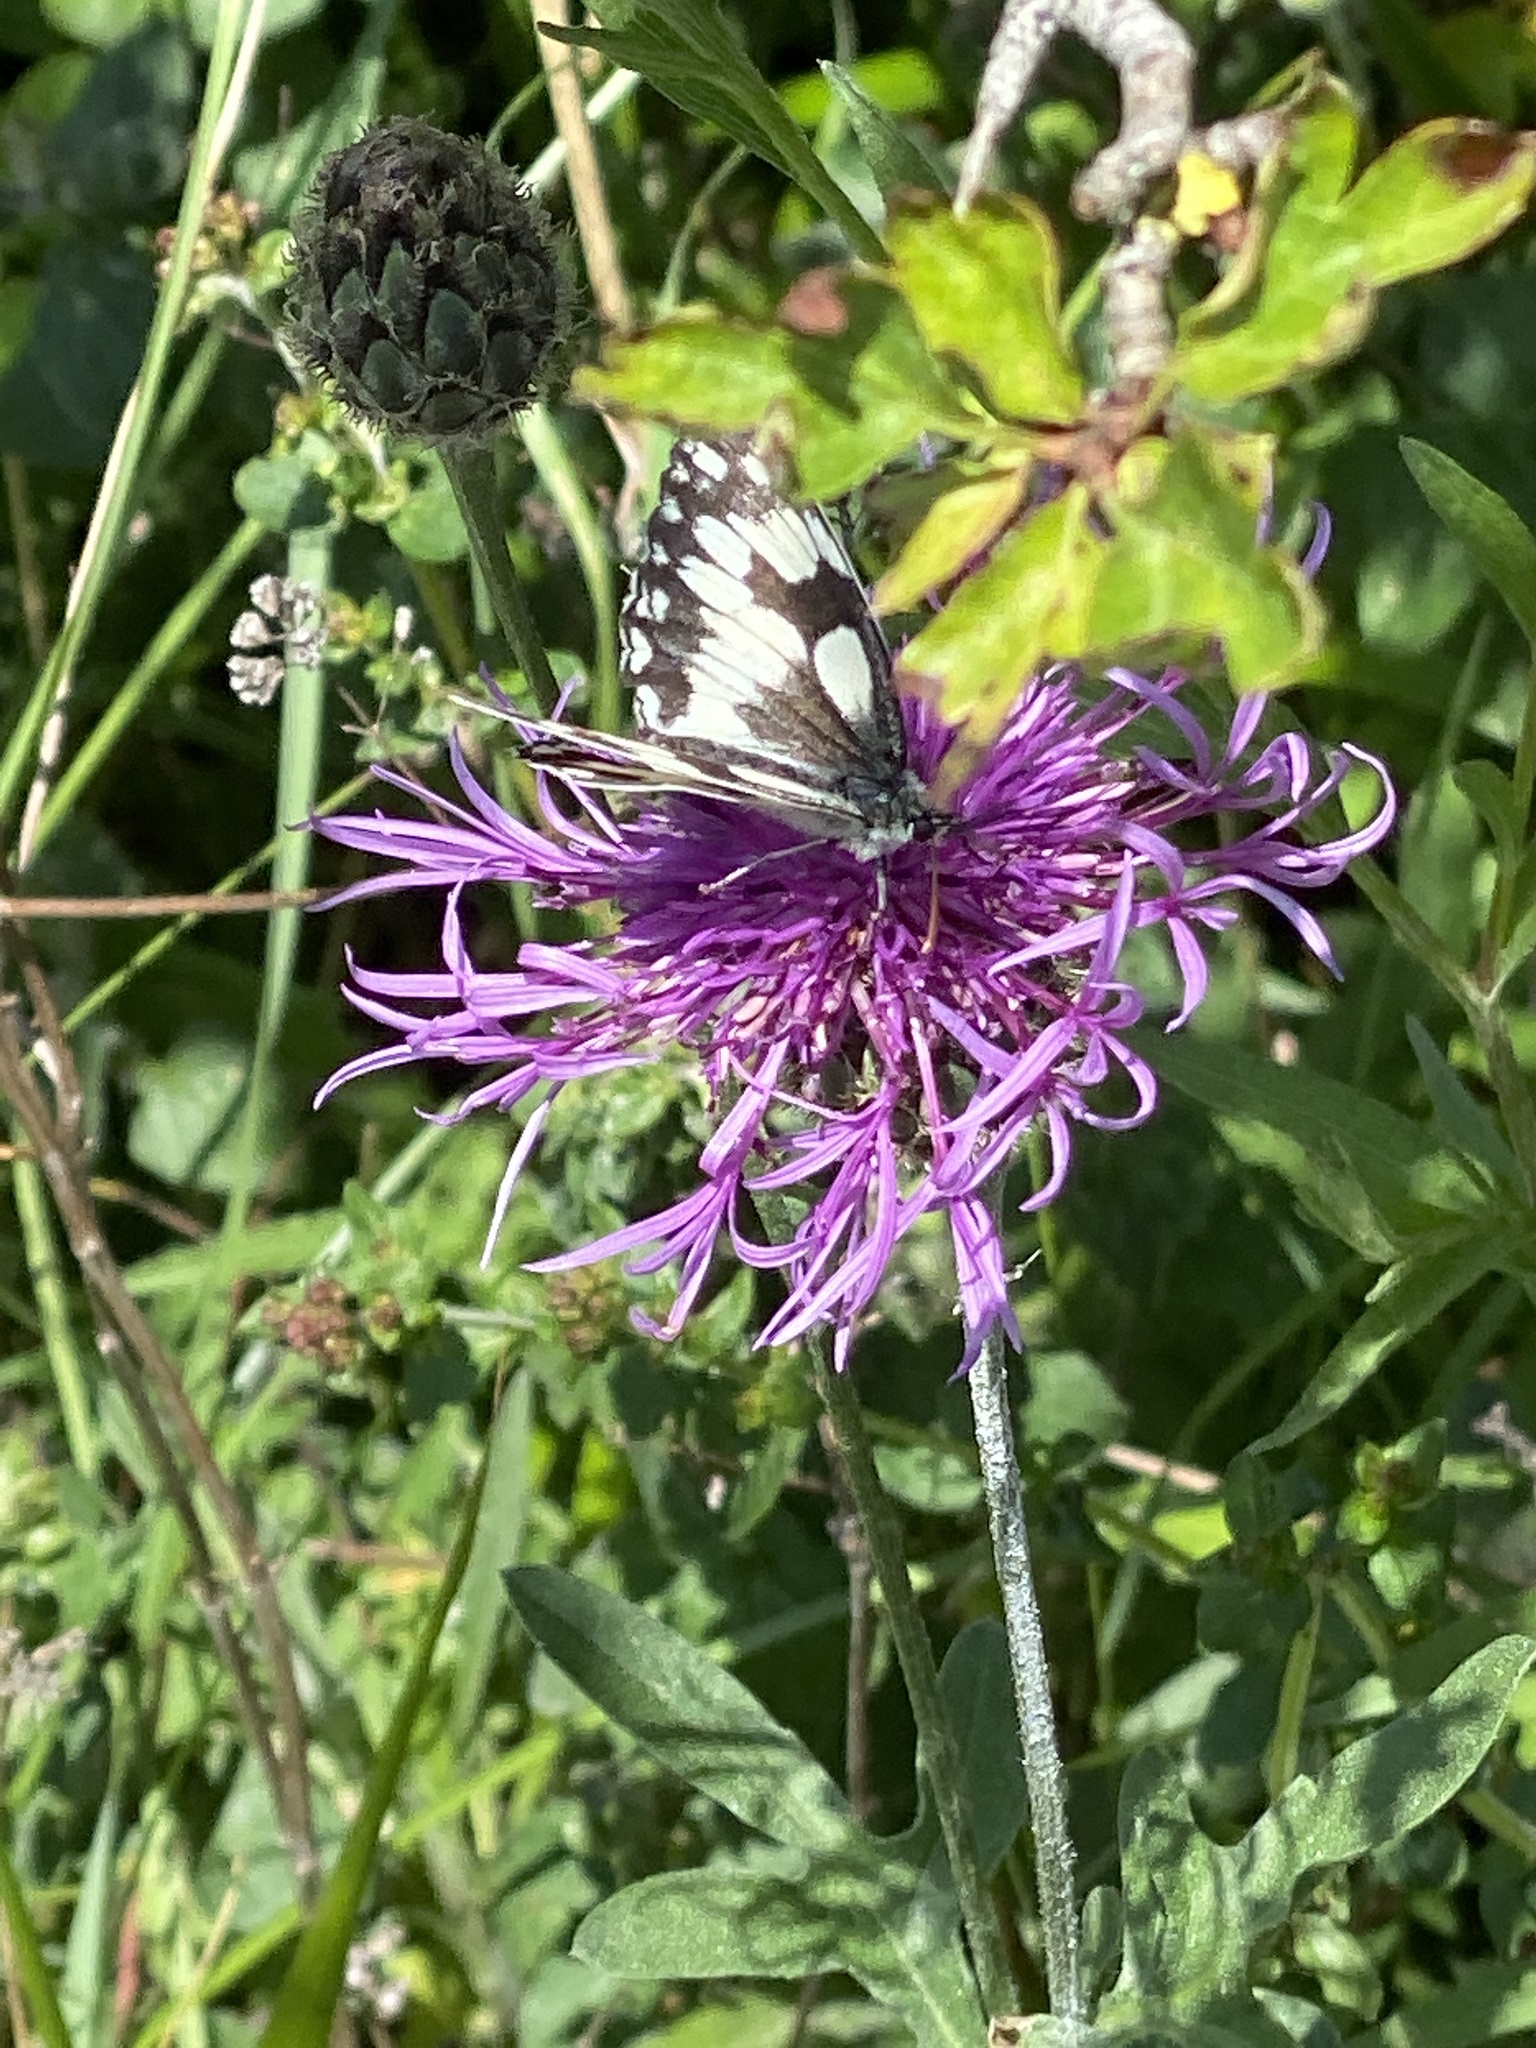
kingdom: Animalia
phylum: Arthropoda
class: Insecta
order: Lepidoptera
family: Nymphalidae
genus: Melanargia
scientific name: Melanargia galathea
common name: Marbled white
